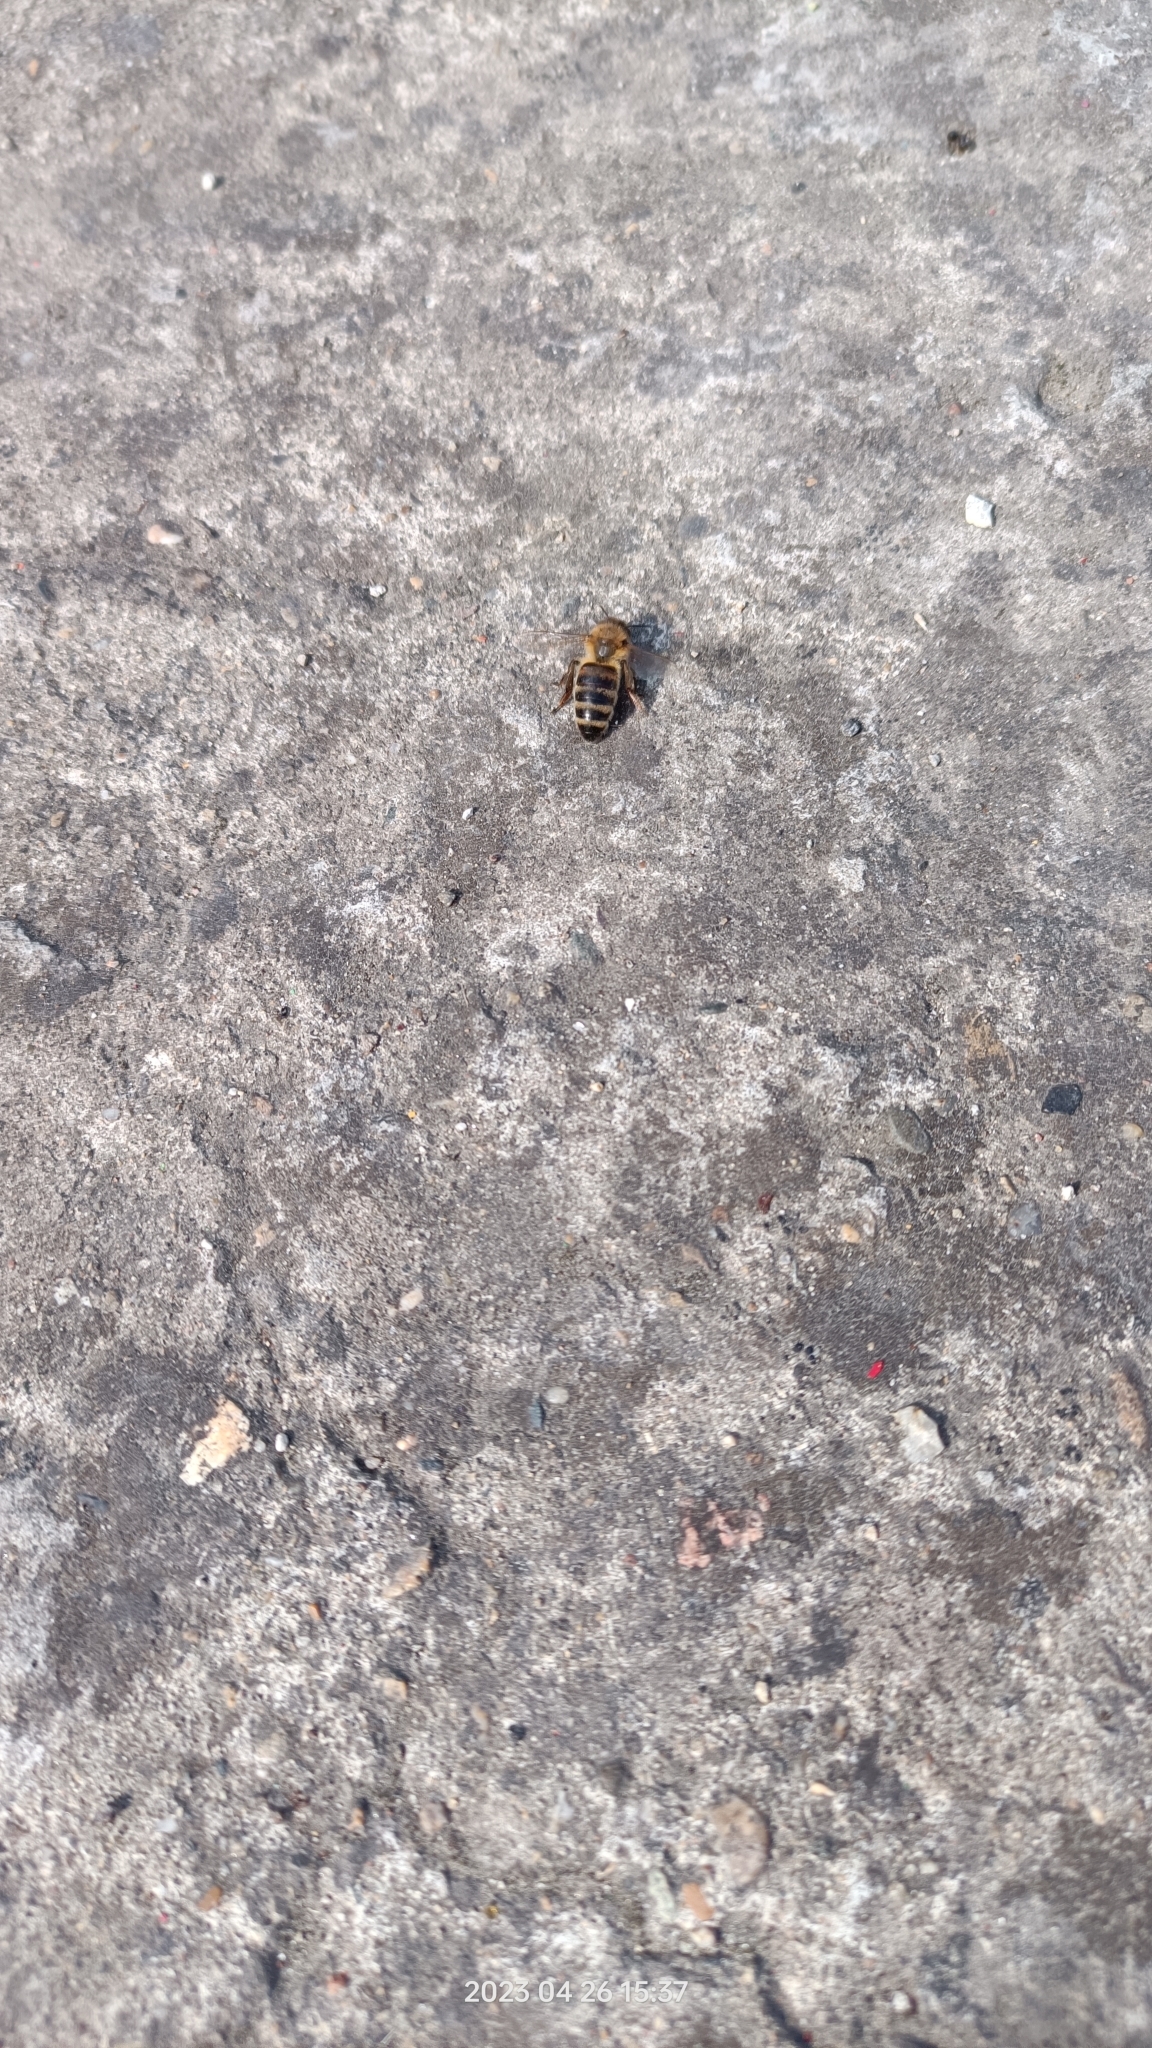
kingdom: Animalia
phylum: Arthropoda
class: Insecta
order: Hymenoptera
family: Apidae
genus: Apis
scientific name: Apis mellifera
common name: Honey bee
